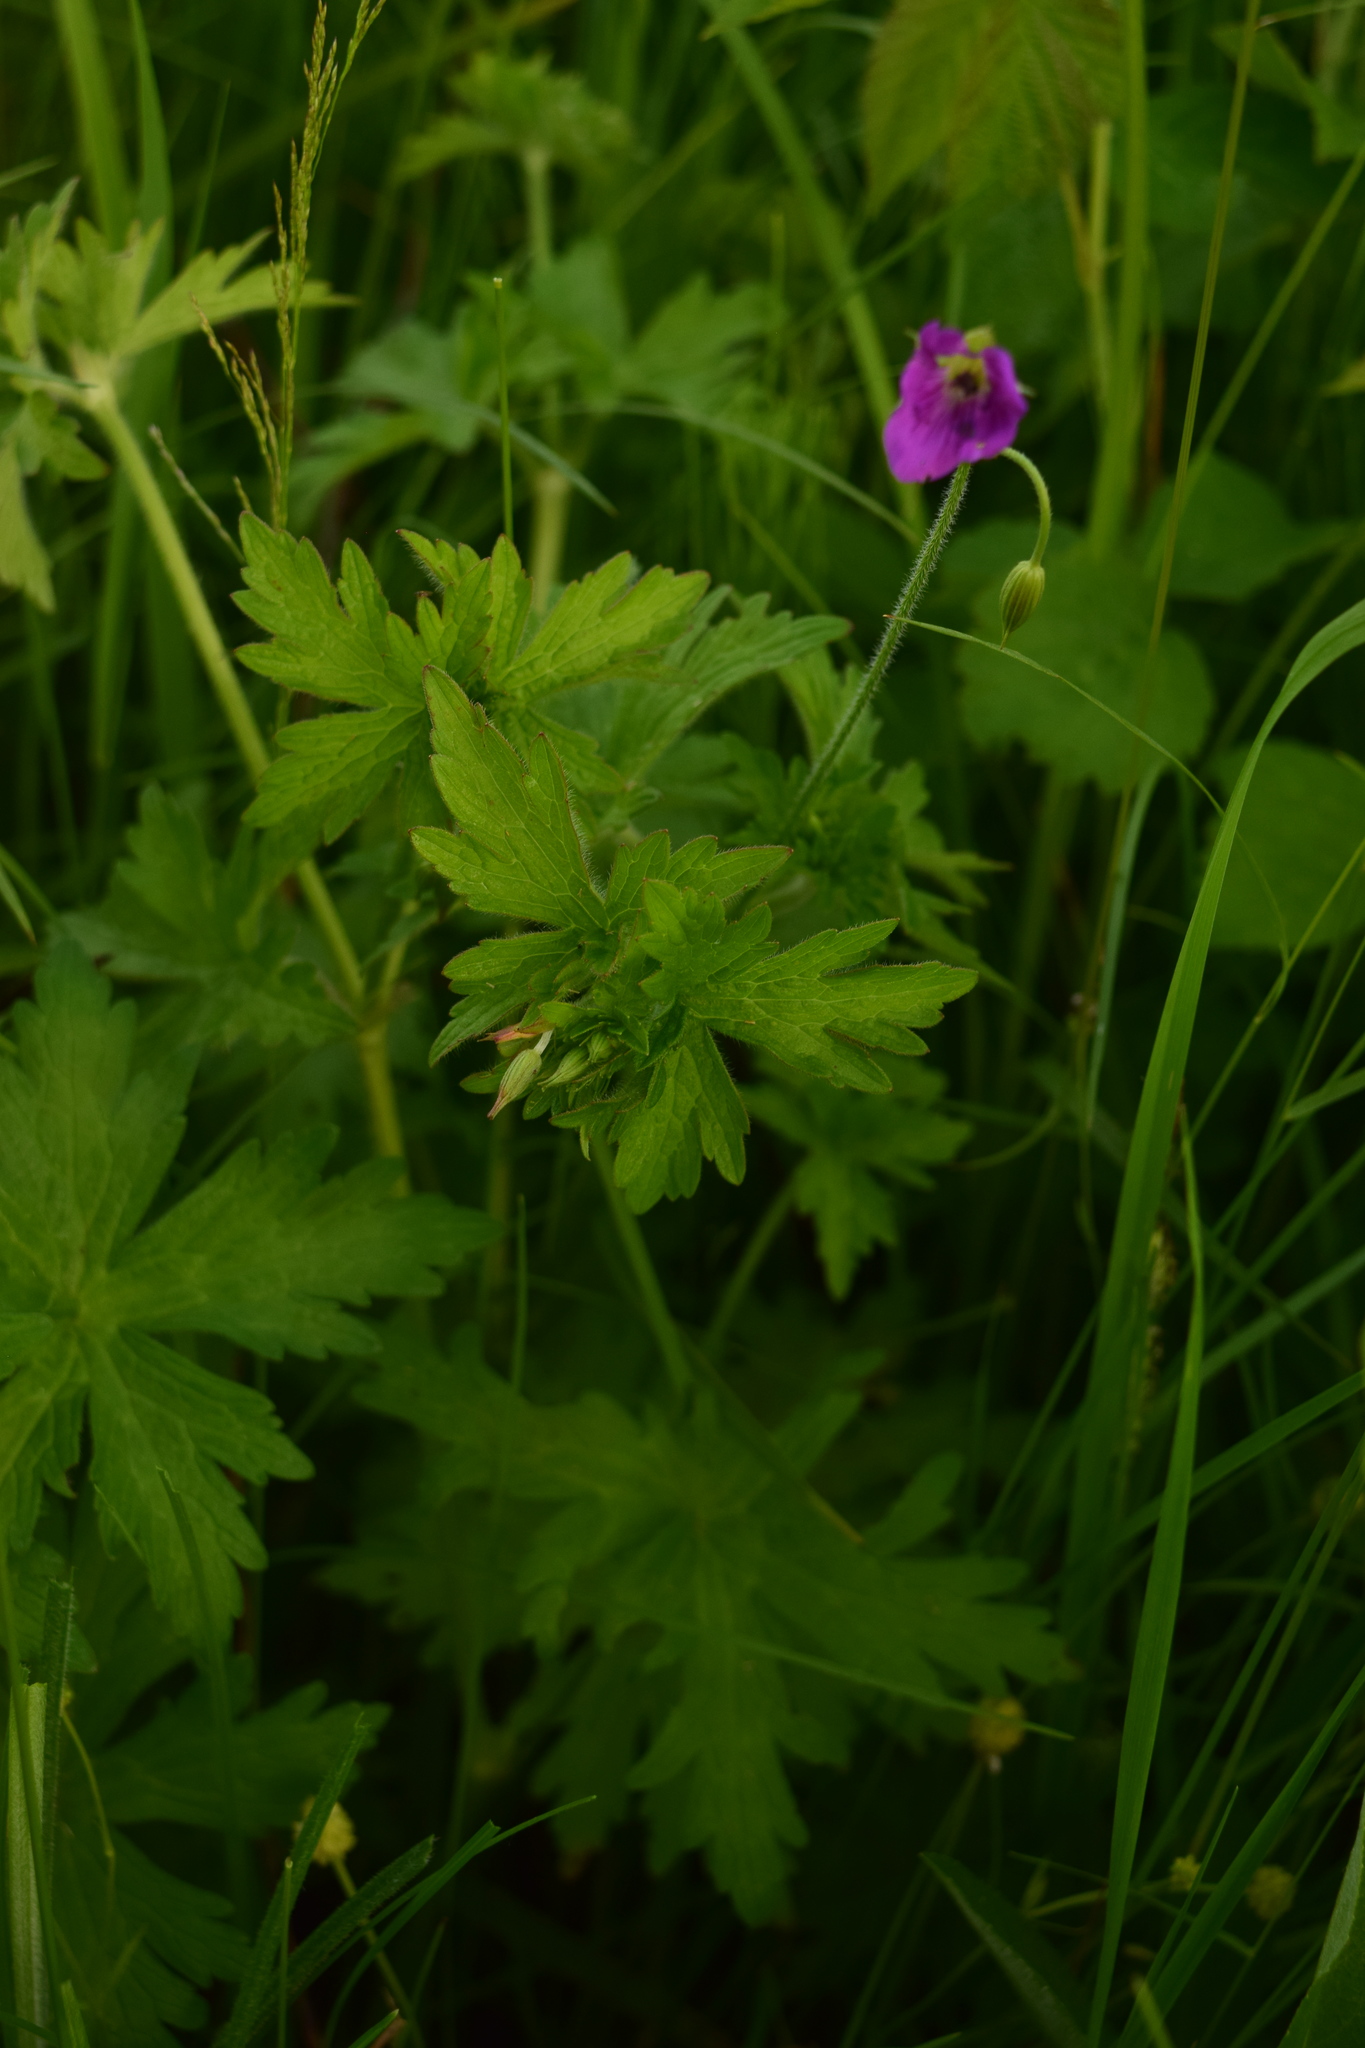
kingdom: Plantae
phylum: Tracheophyta
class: Magnoliopsida
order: Geraniales
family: Geraniaceae
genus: Geranium
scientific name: Geranium palustre
